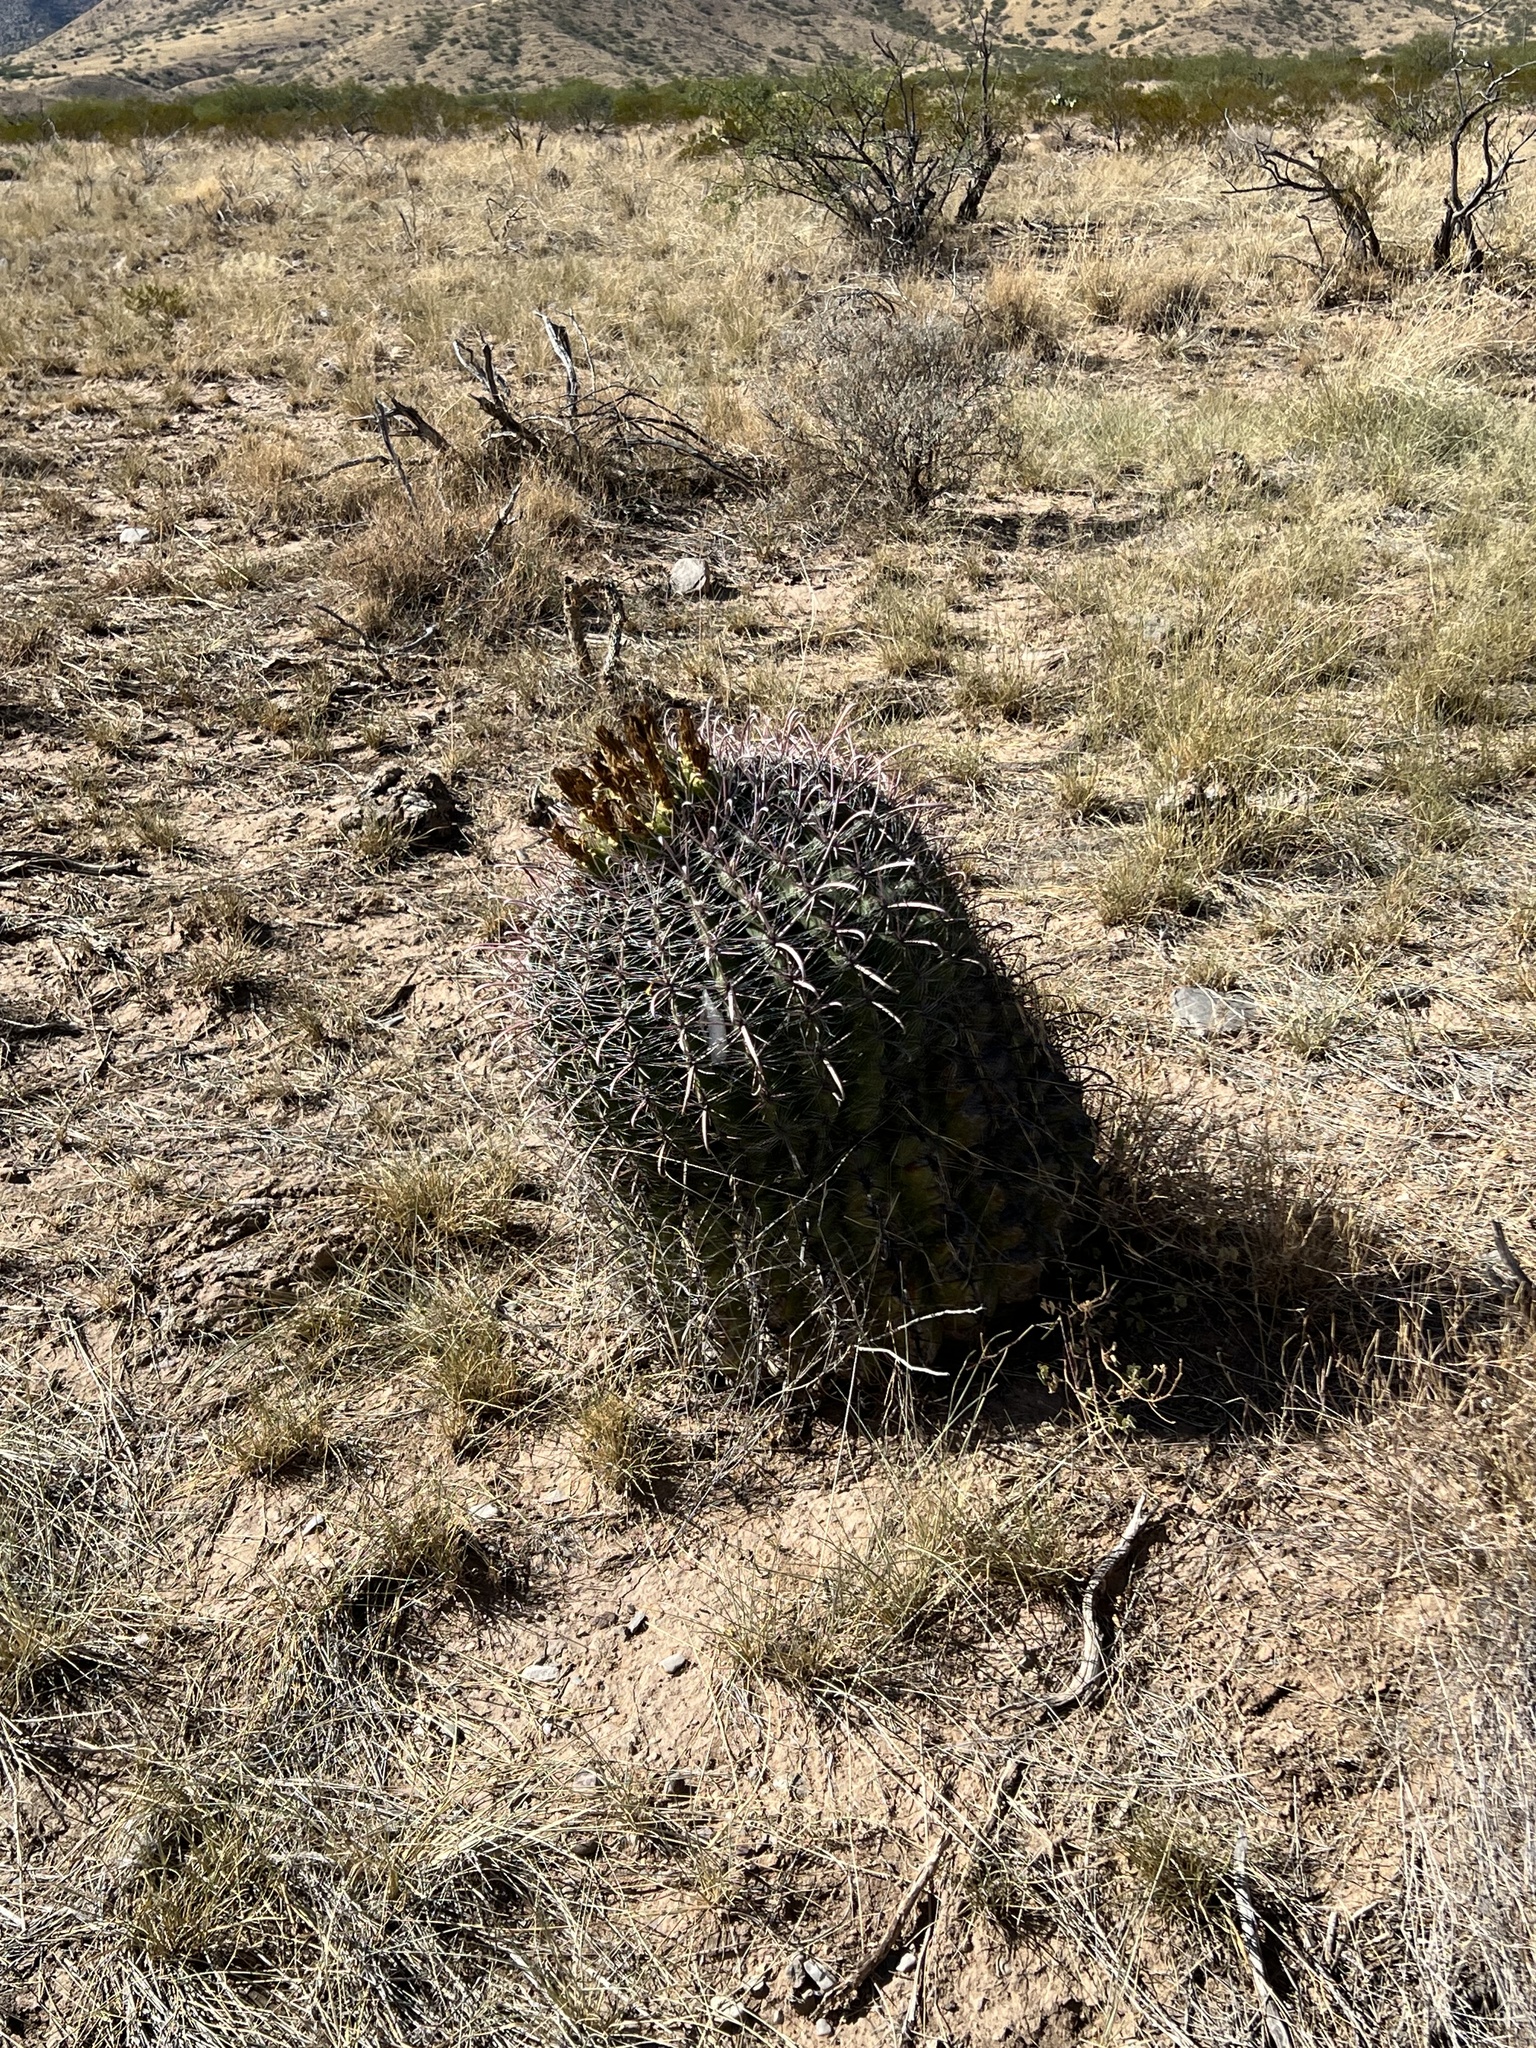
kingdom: Plantae
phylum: Tracheophyta
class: Magnoliopsida
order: Caryophyllales
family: Cactaceae
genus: Ferocactus
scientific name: Ferocactus wislizeni
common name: Candy barrel cactus
